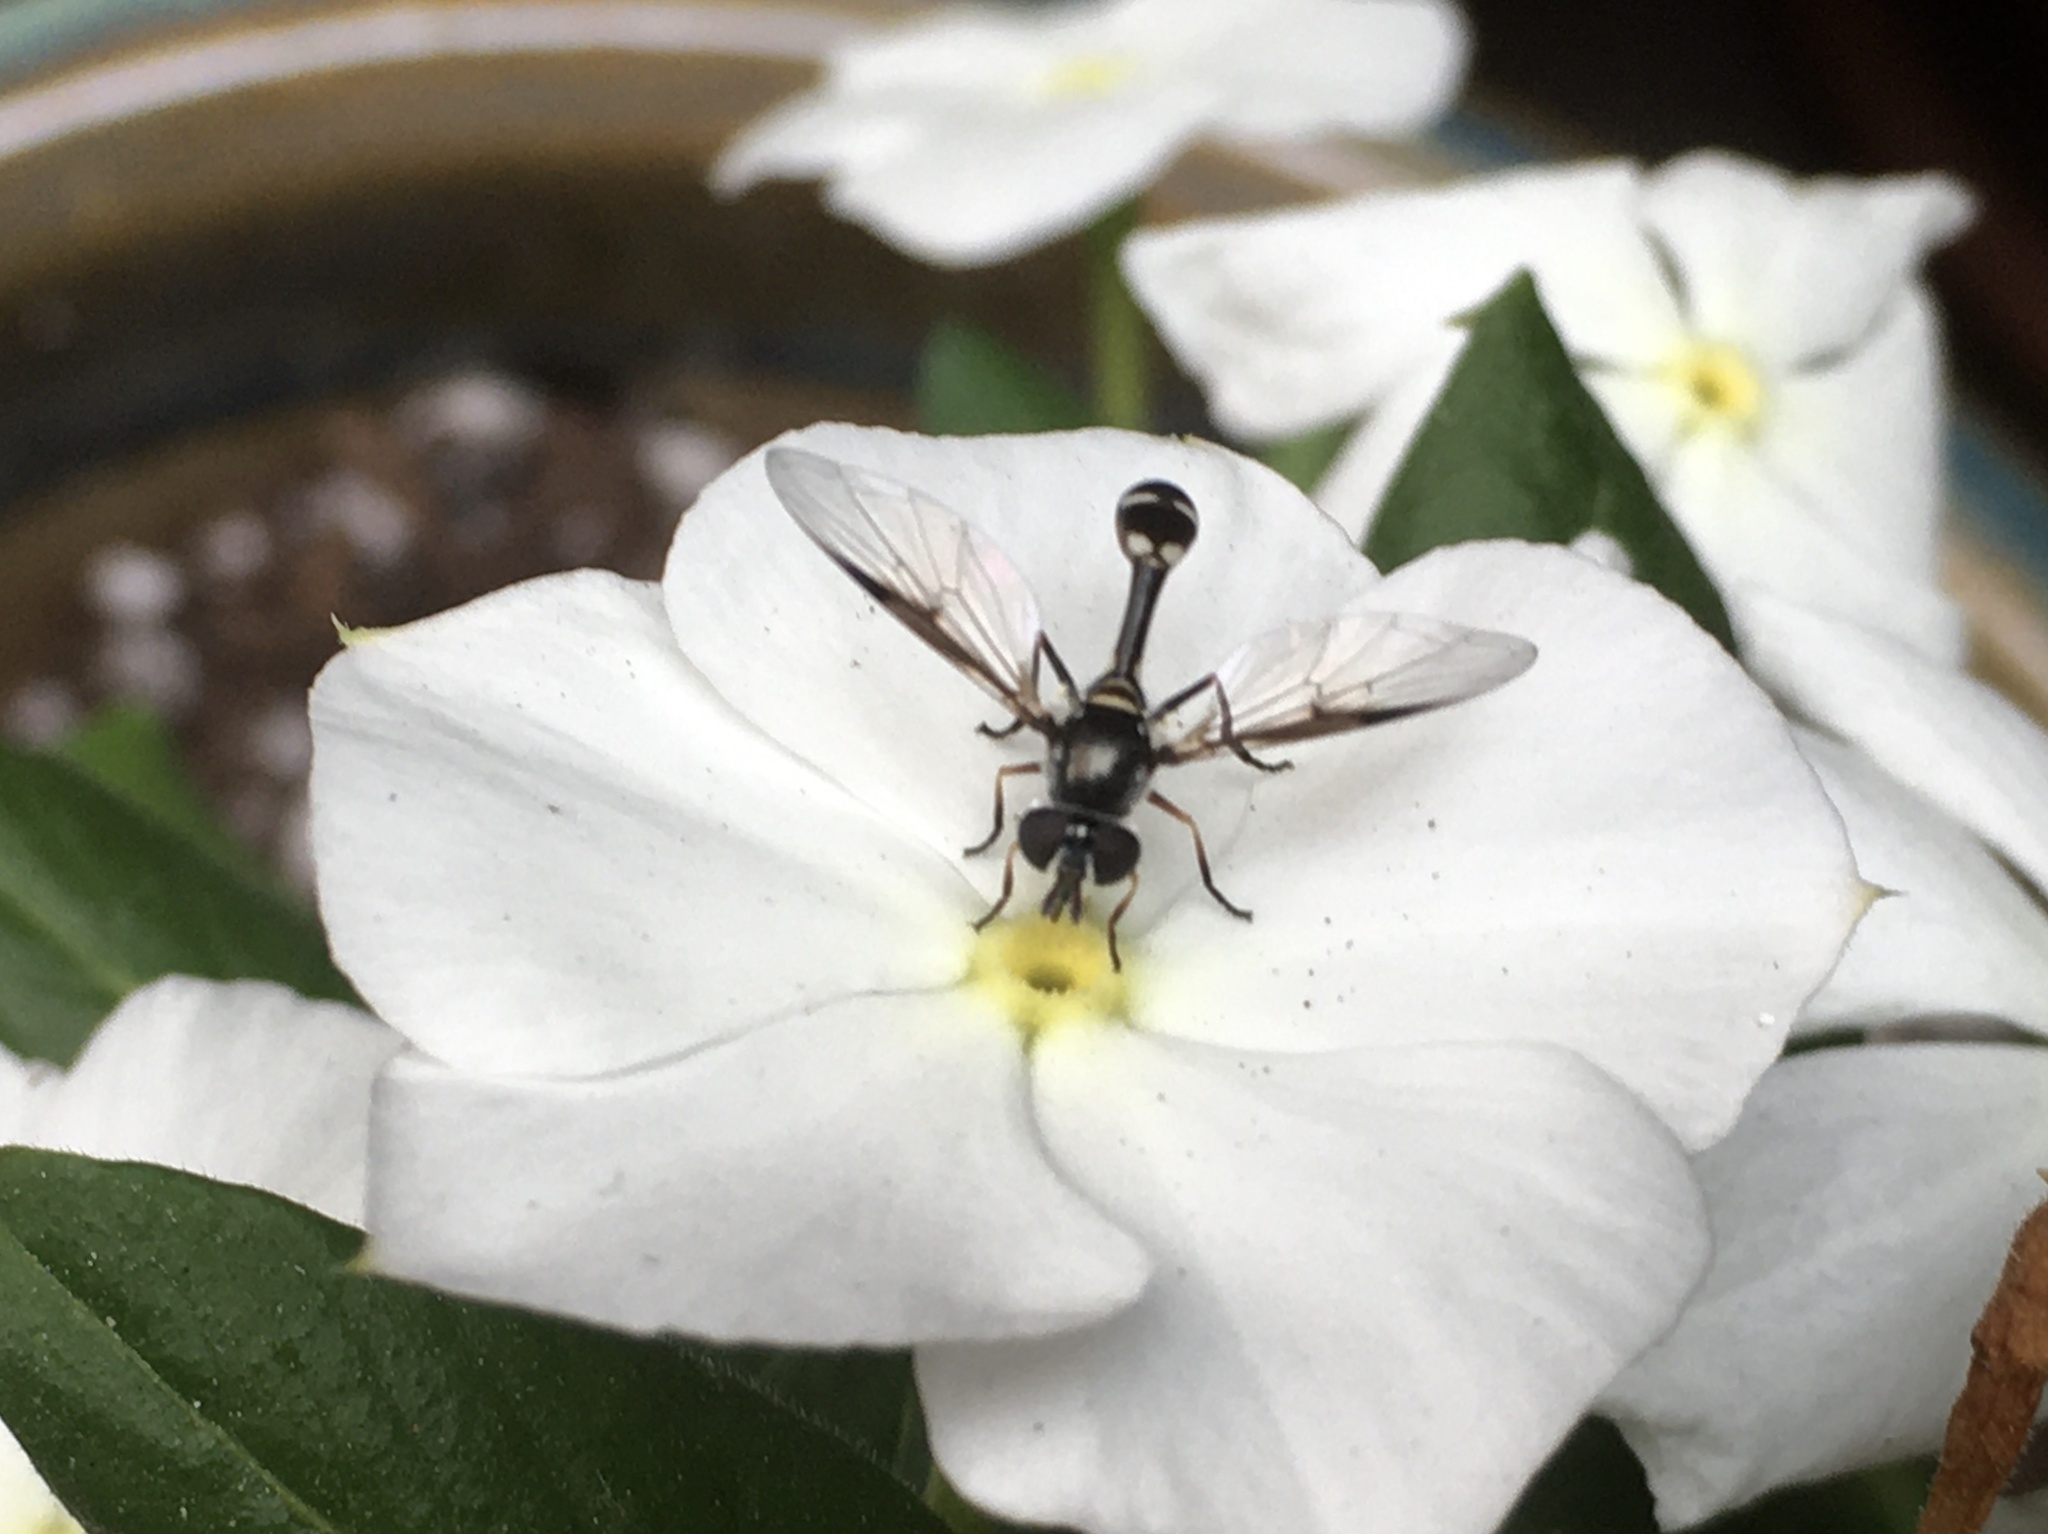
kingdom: Animalia
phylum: Arthropoda
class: Insecta
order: Diptera
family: Syrphidae
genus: Dioprosopa
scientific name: Dioprosopa clavatus
